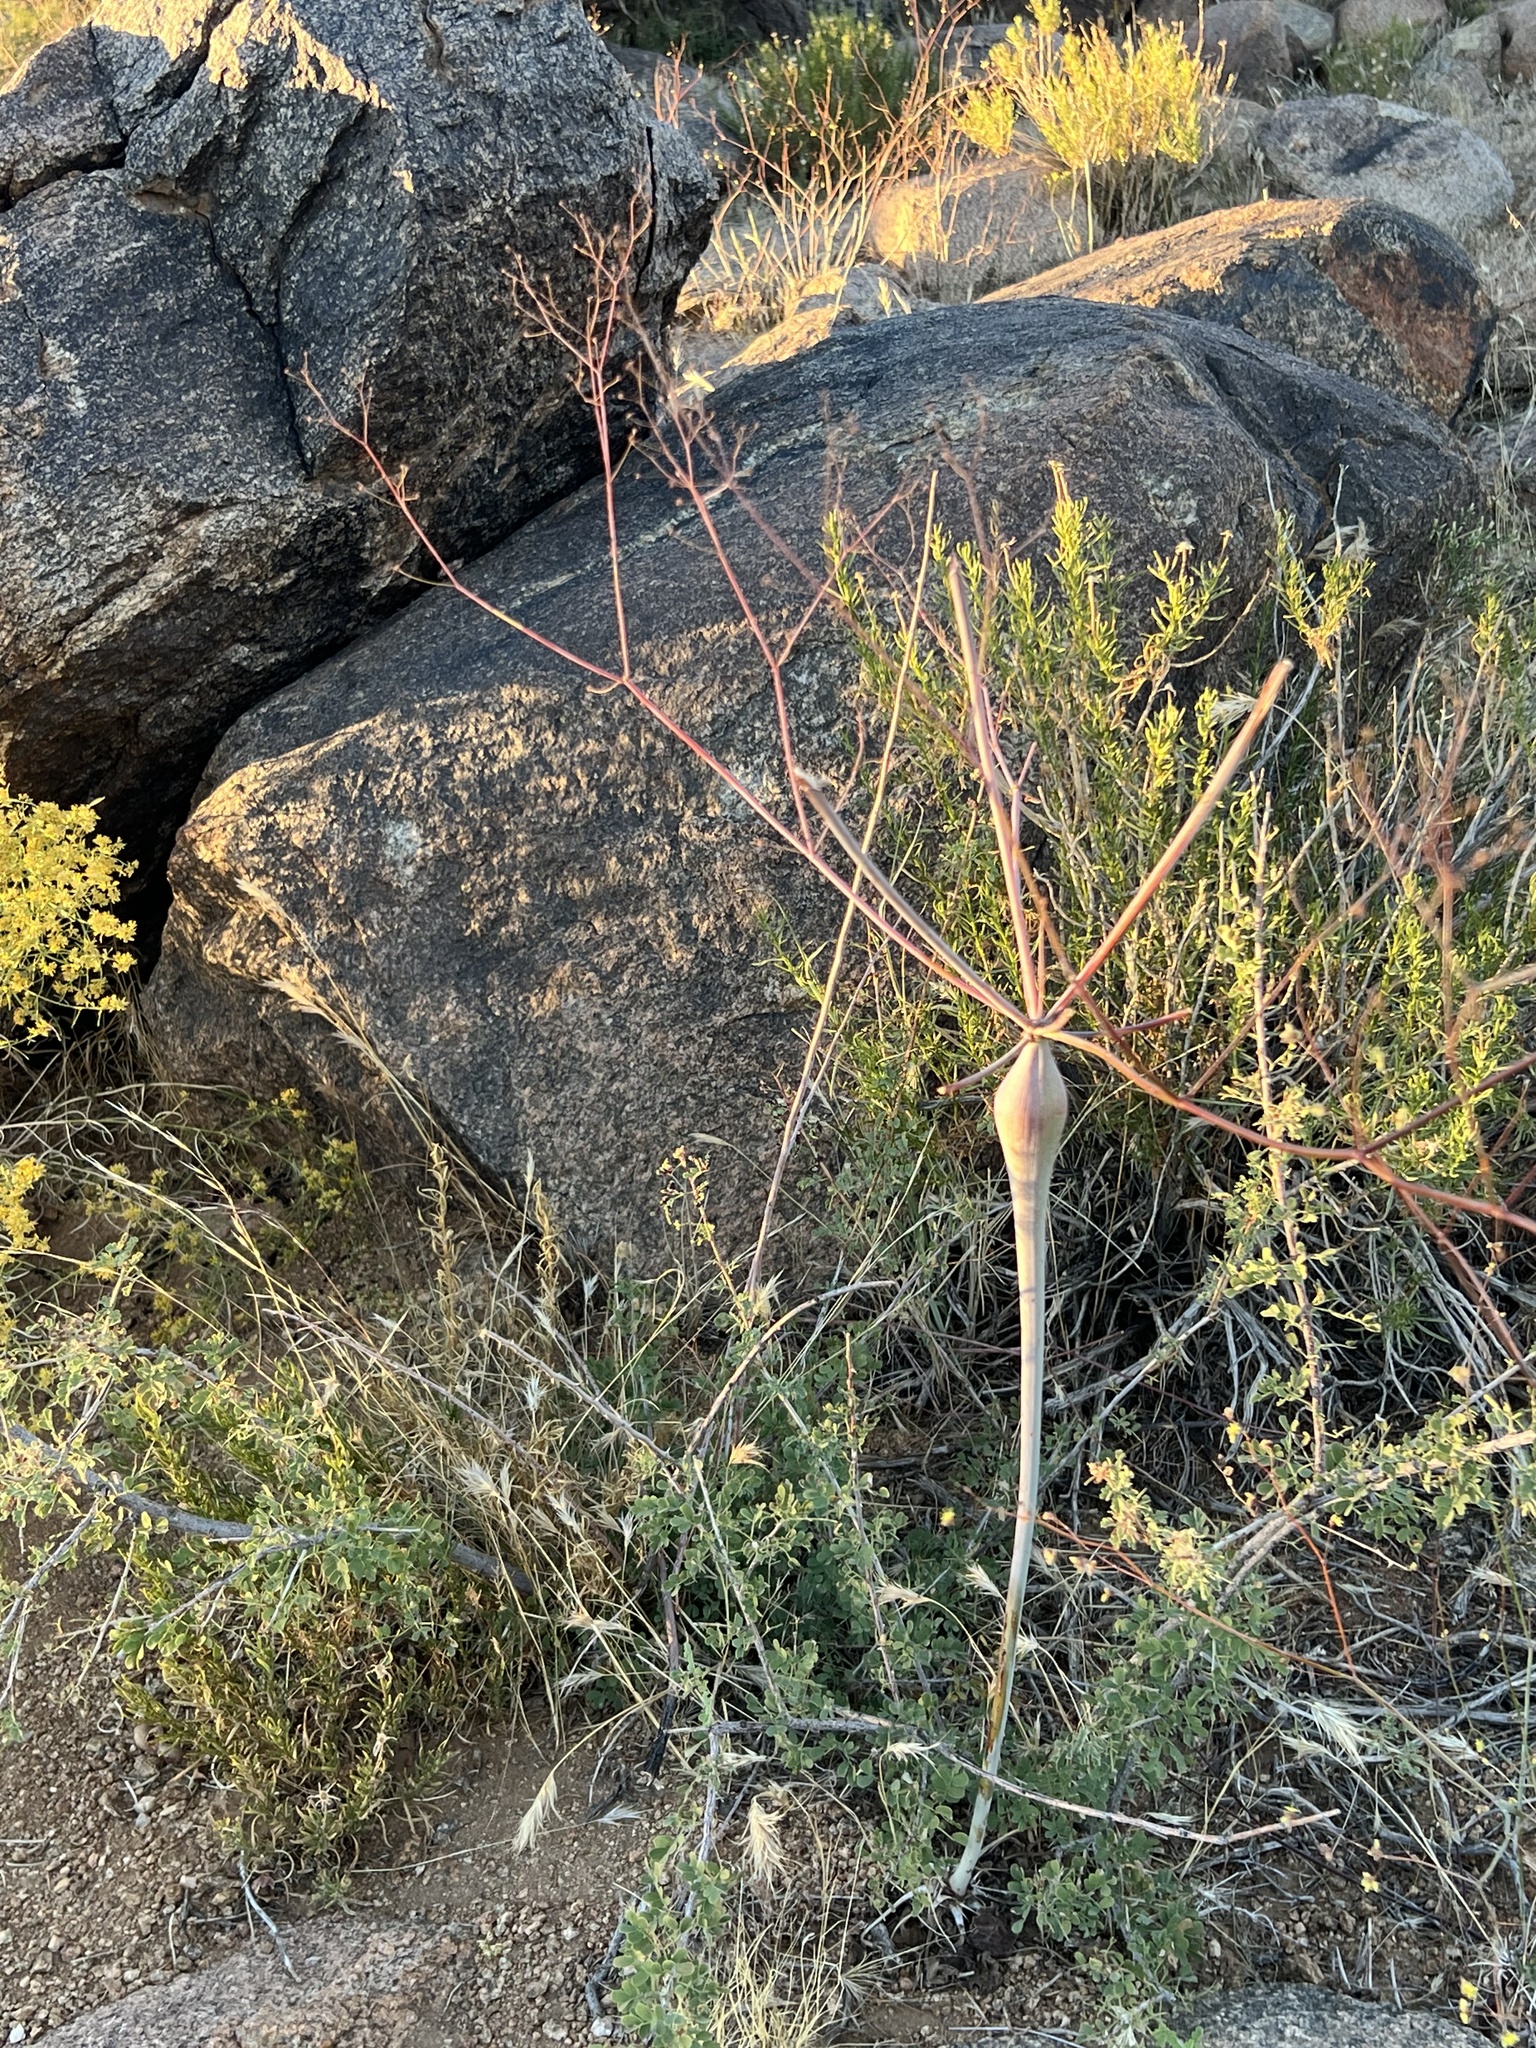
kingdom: Plantae
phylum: Tracheophyta
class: Magnoliopsida
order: Caryophyllales
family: Polygonaceae
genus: Eriogonum
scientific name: Eriogonum inflatum
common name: Desert trumpet
